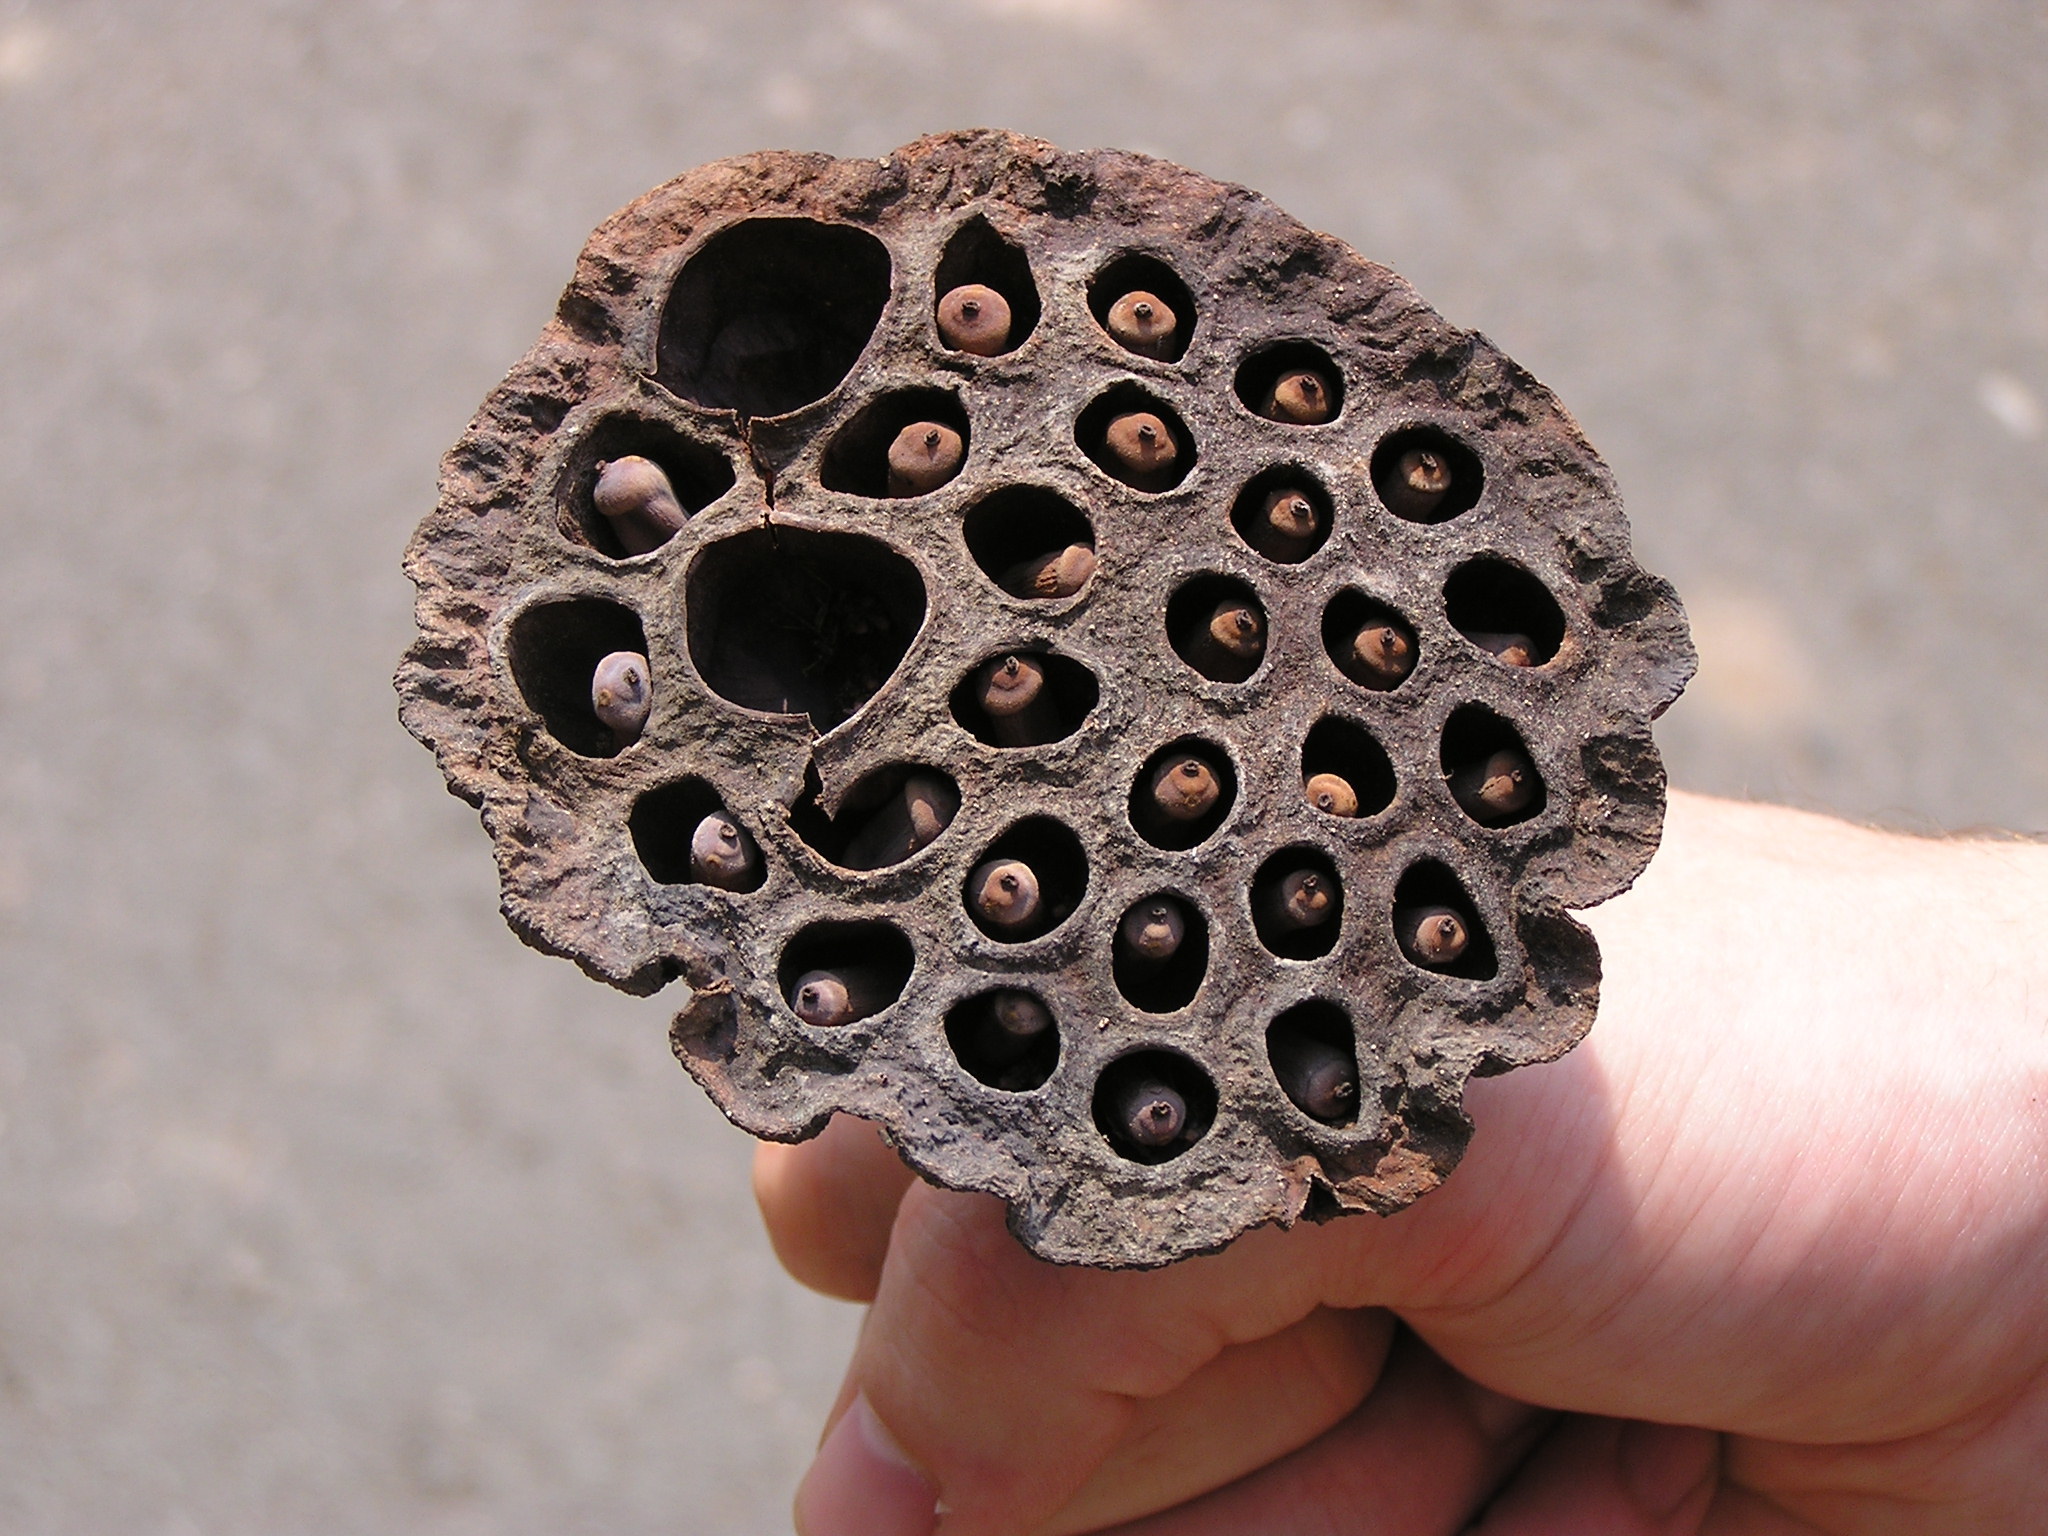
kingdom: Plantae
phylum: Tracheophyta
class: Magnoliopsida
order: Proteales
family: Nelumbonaceae
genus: Nelumbo
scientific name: Nelumbo nucifera
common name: Sacred lotus
